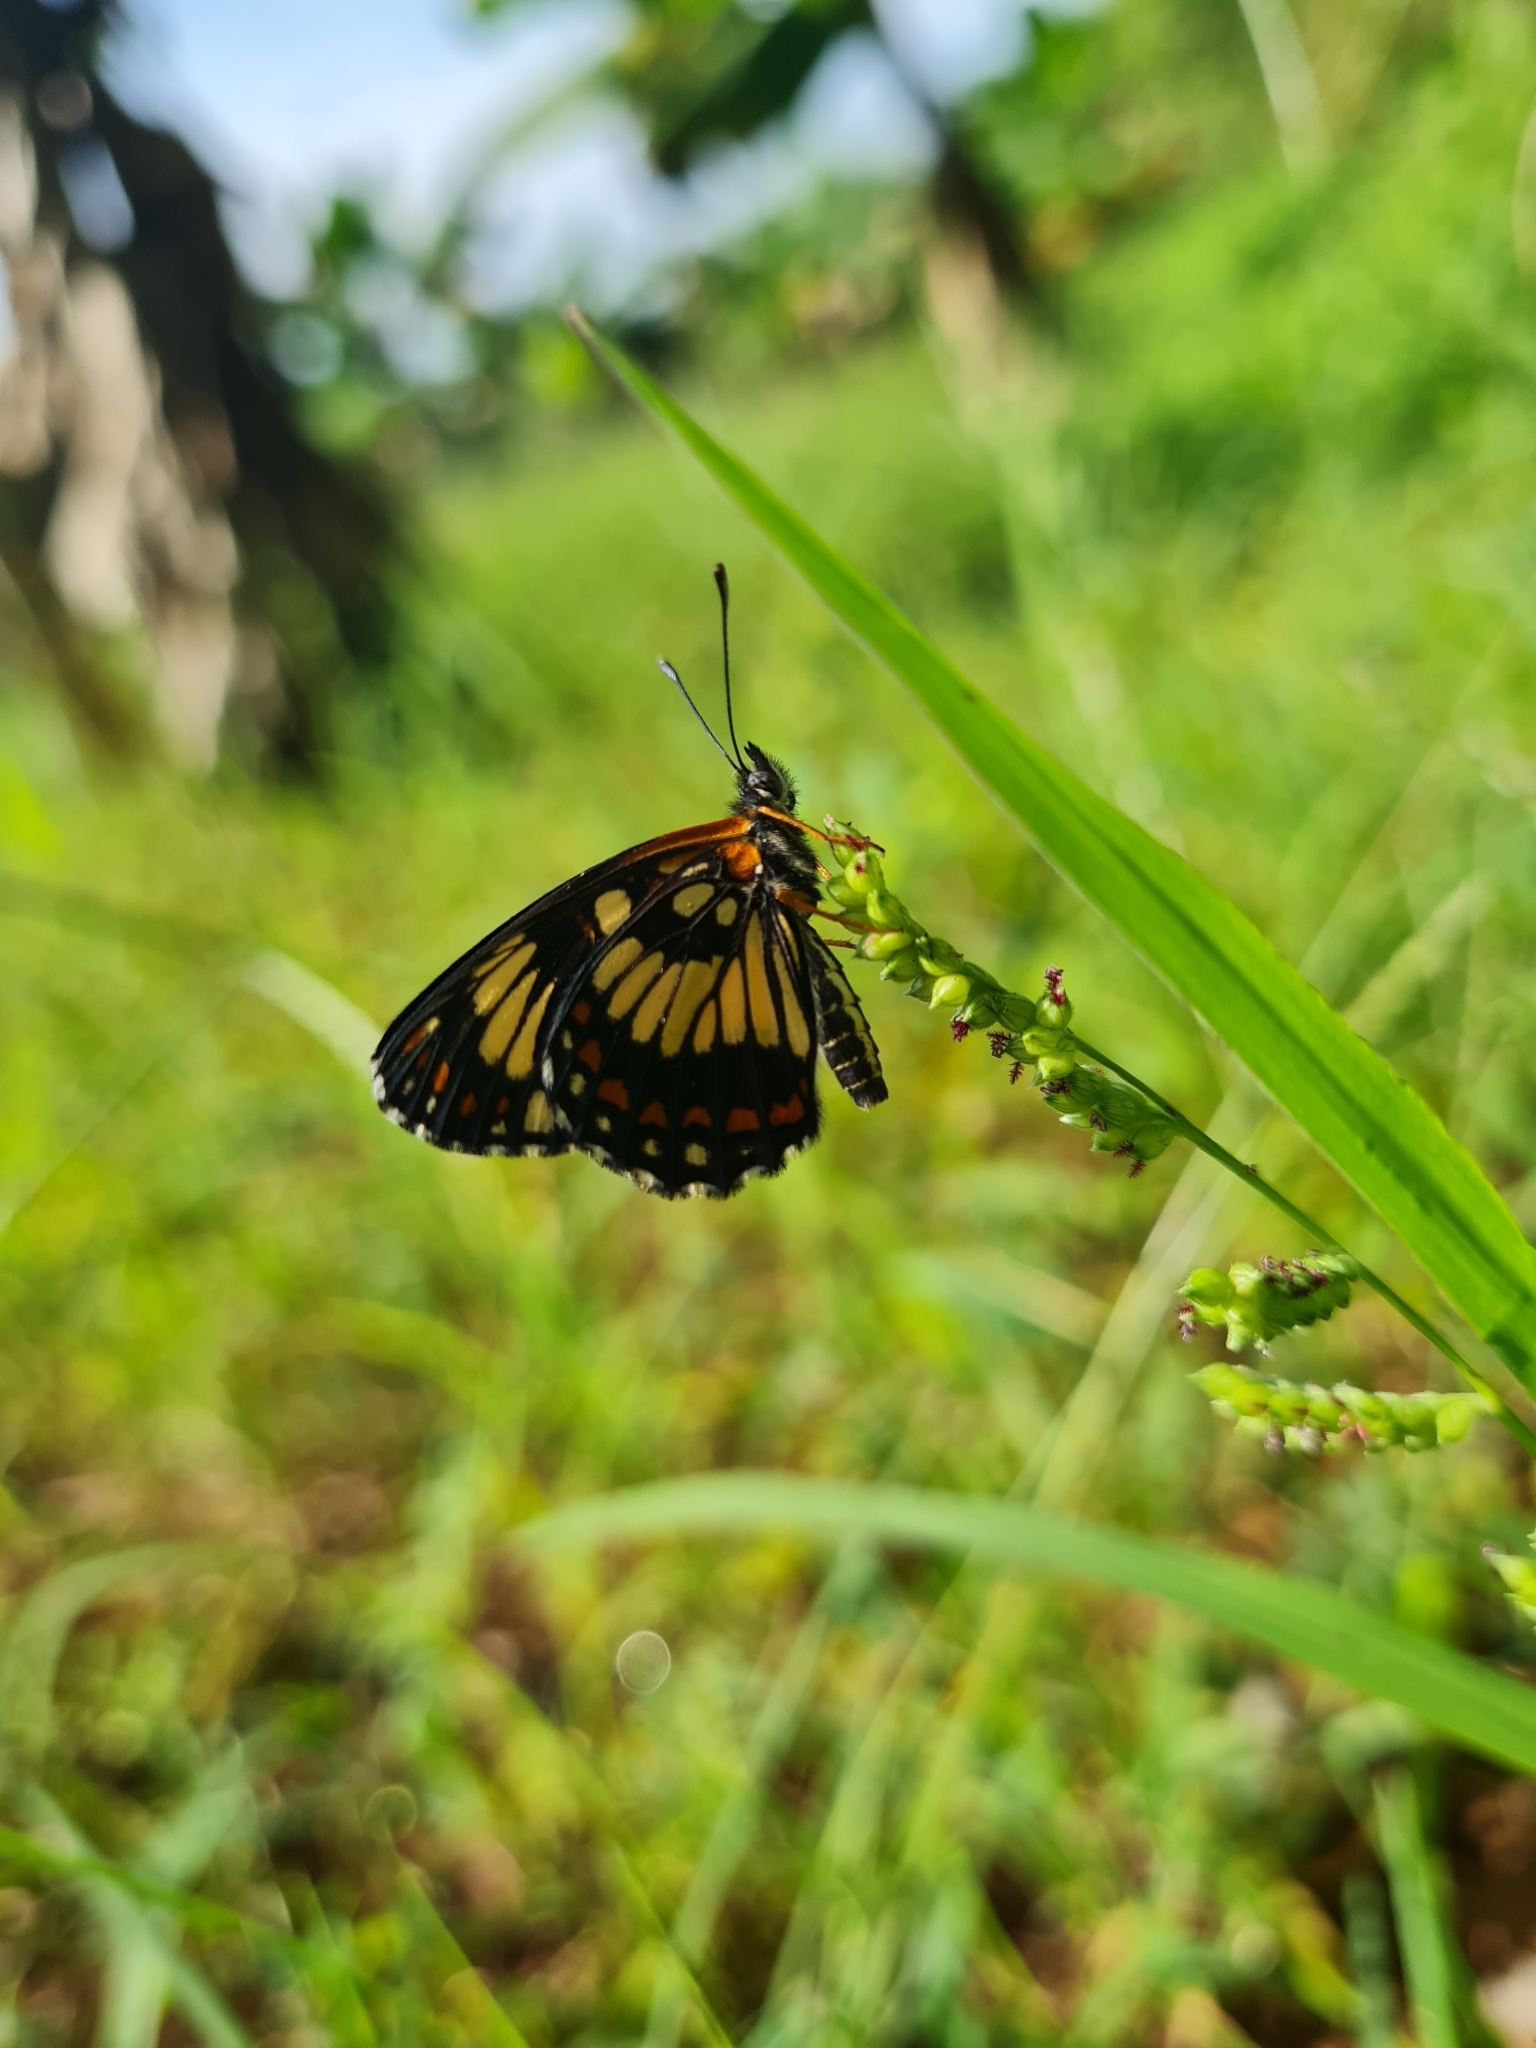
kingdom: Animalia
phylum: Arthropoda
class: Insecta
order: Lepidoptera
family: Nymphalidae
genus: Chlosyne
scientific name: Chlosyne ezra
